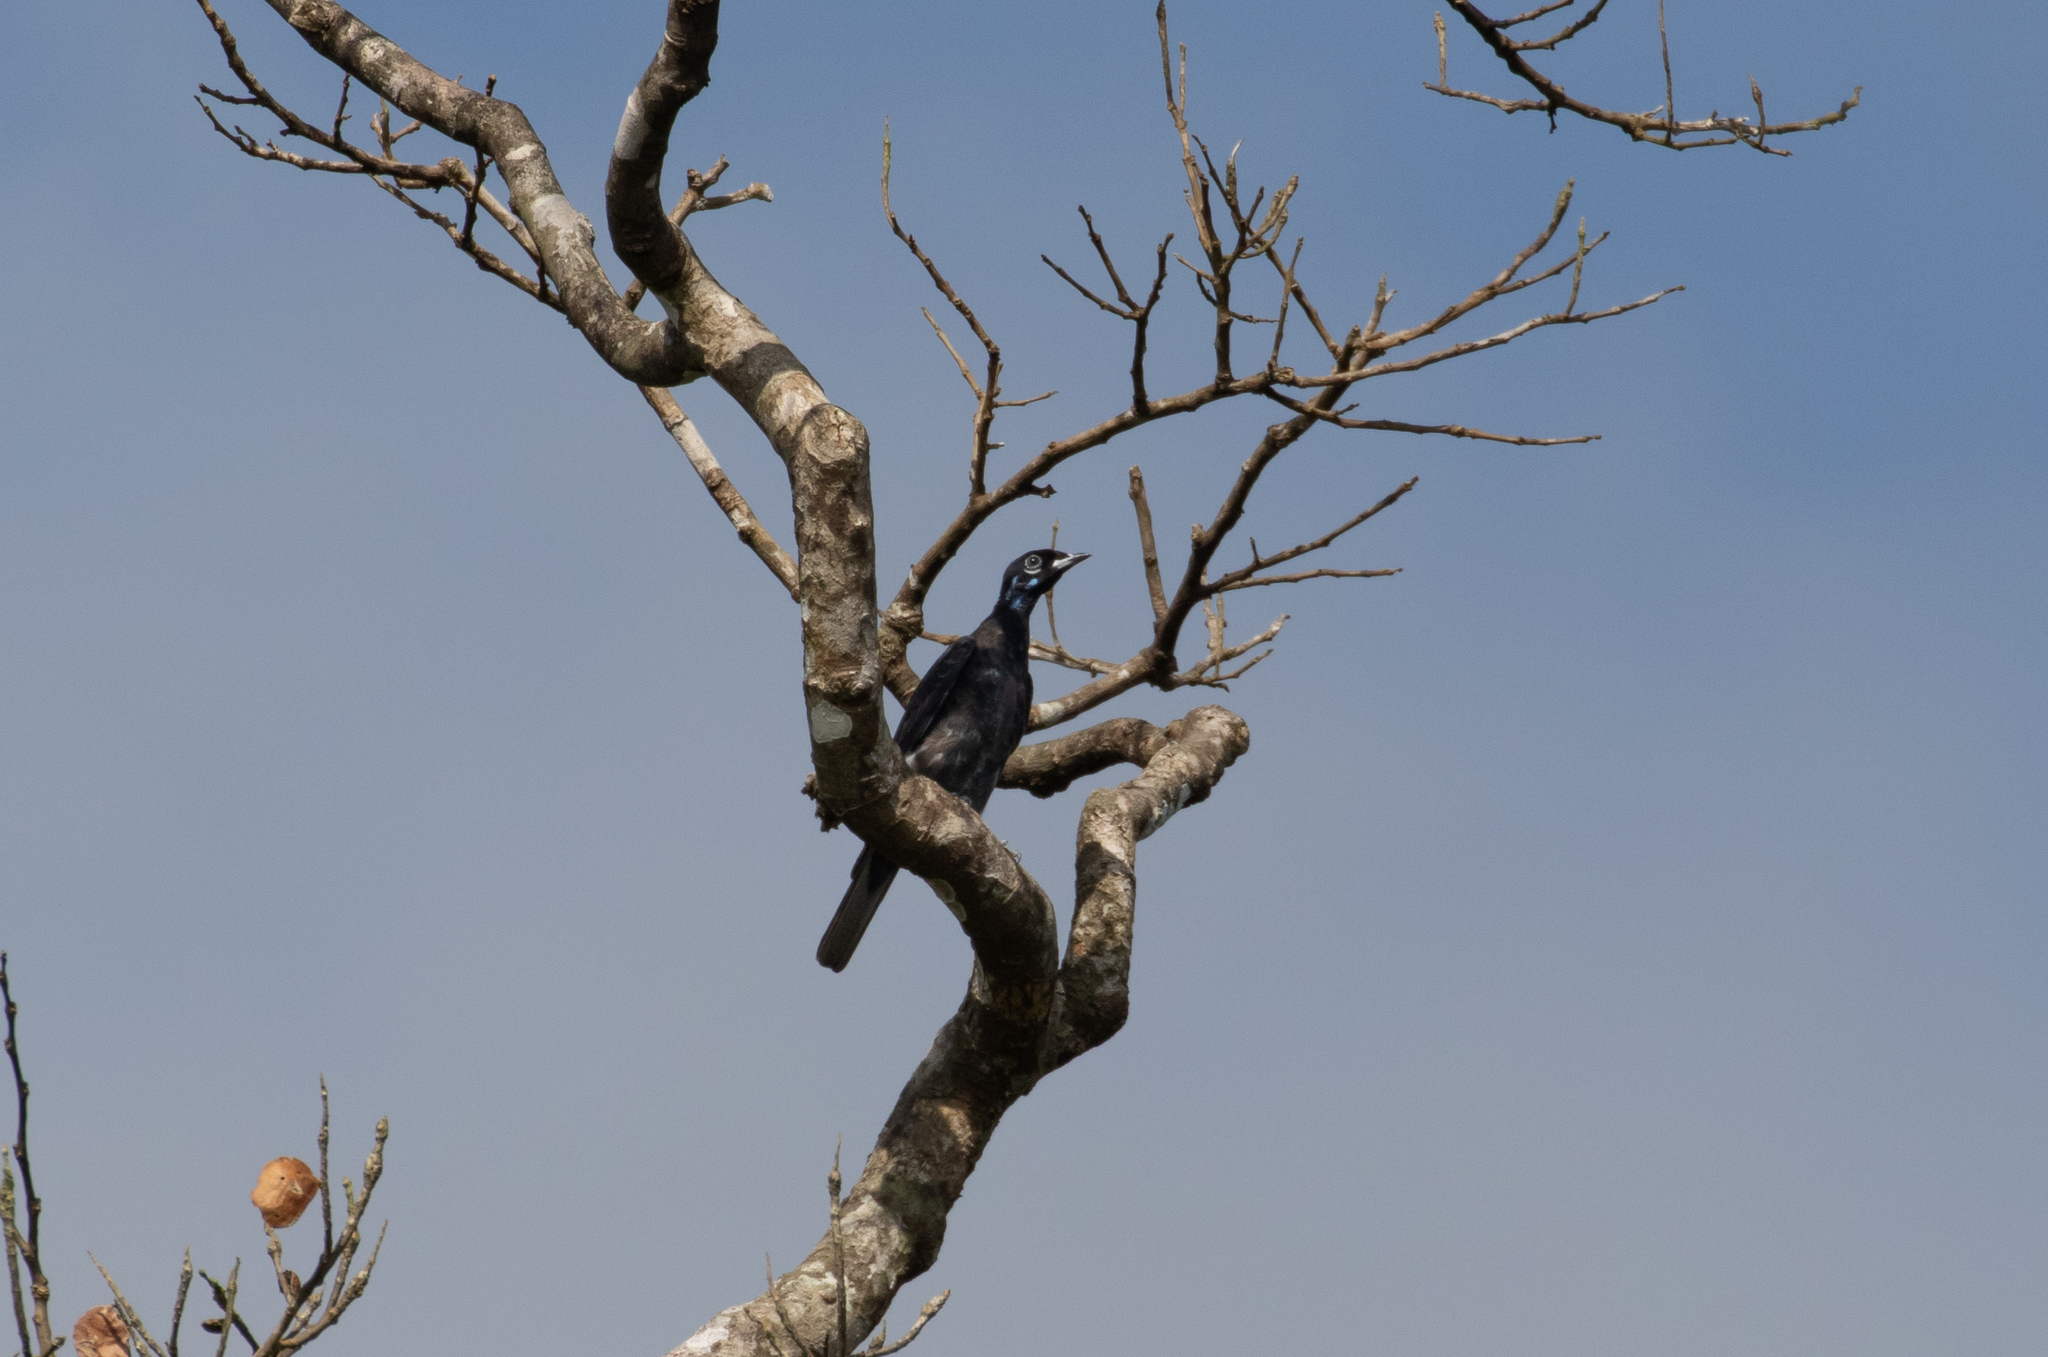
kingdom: Animalia
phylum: Chordata
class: Aves
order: Passeriformes
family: Cotingidae
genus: Gymnoderus
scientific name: Gymnoderus foetidus
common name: Bare-necked fruitcrow
